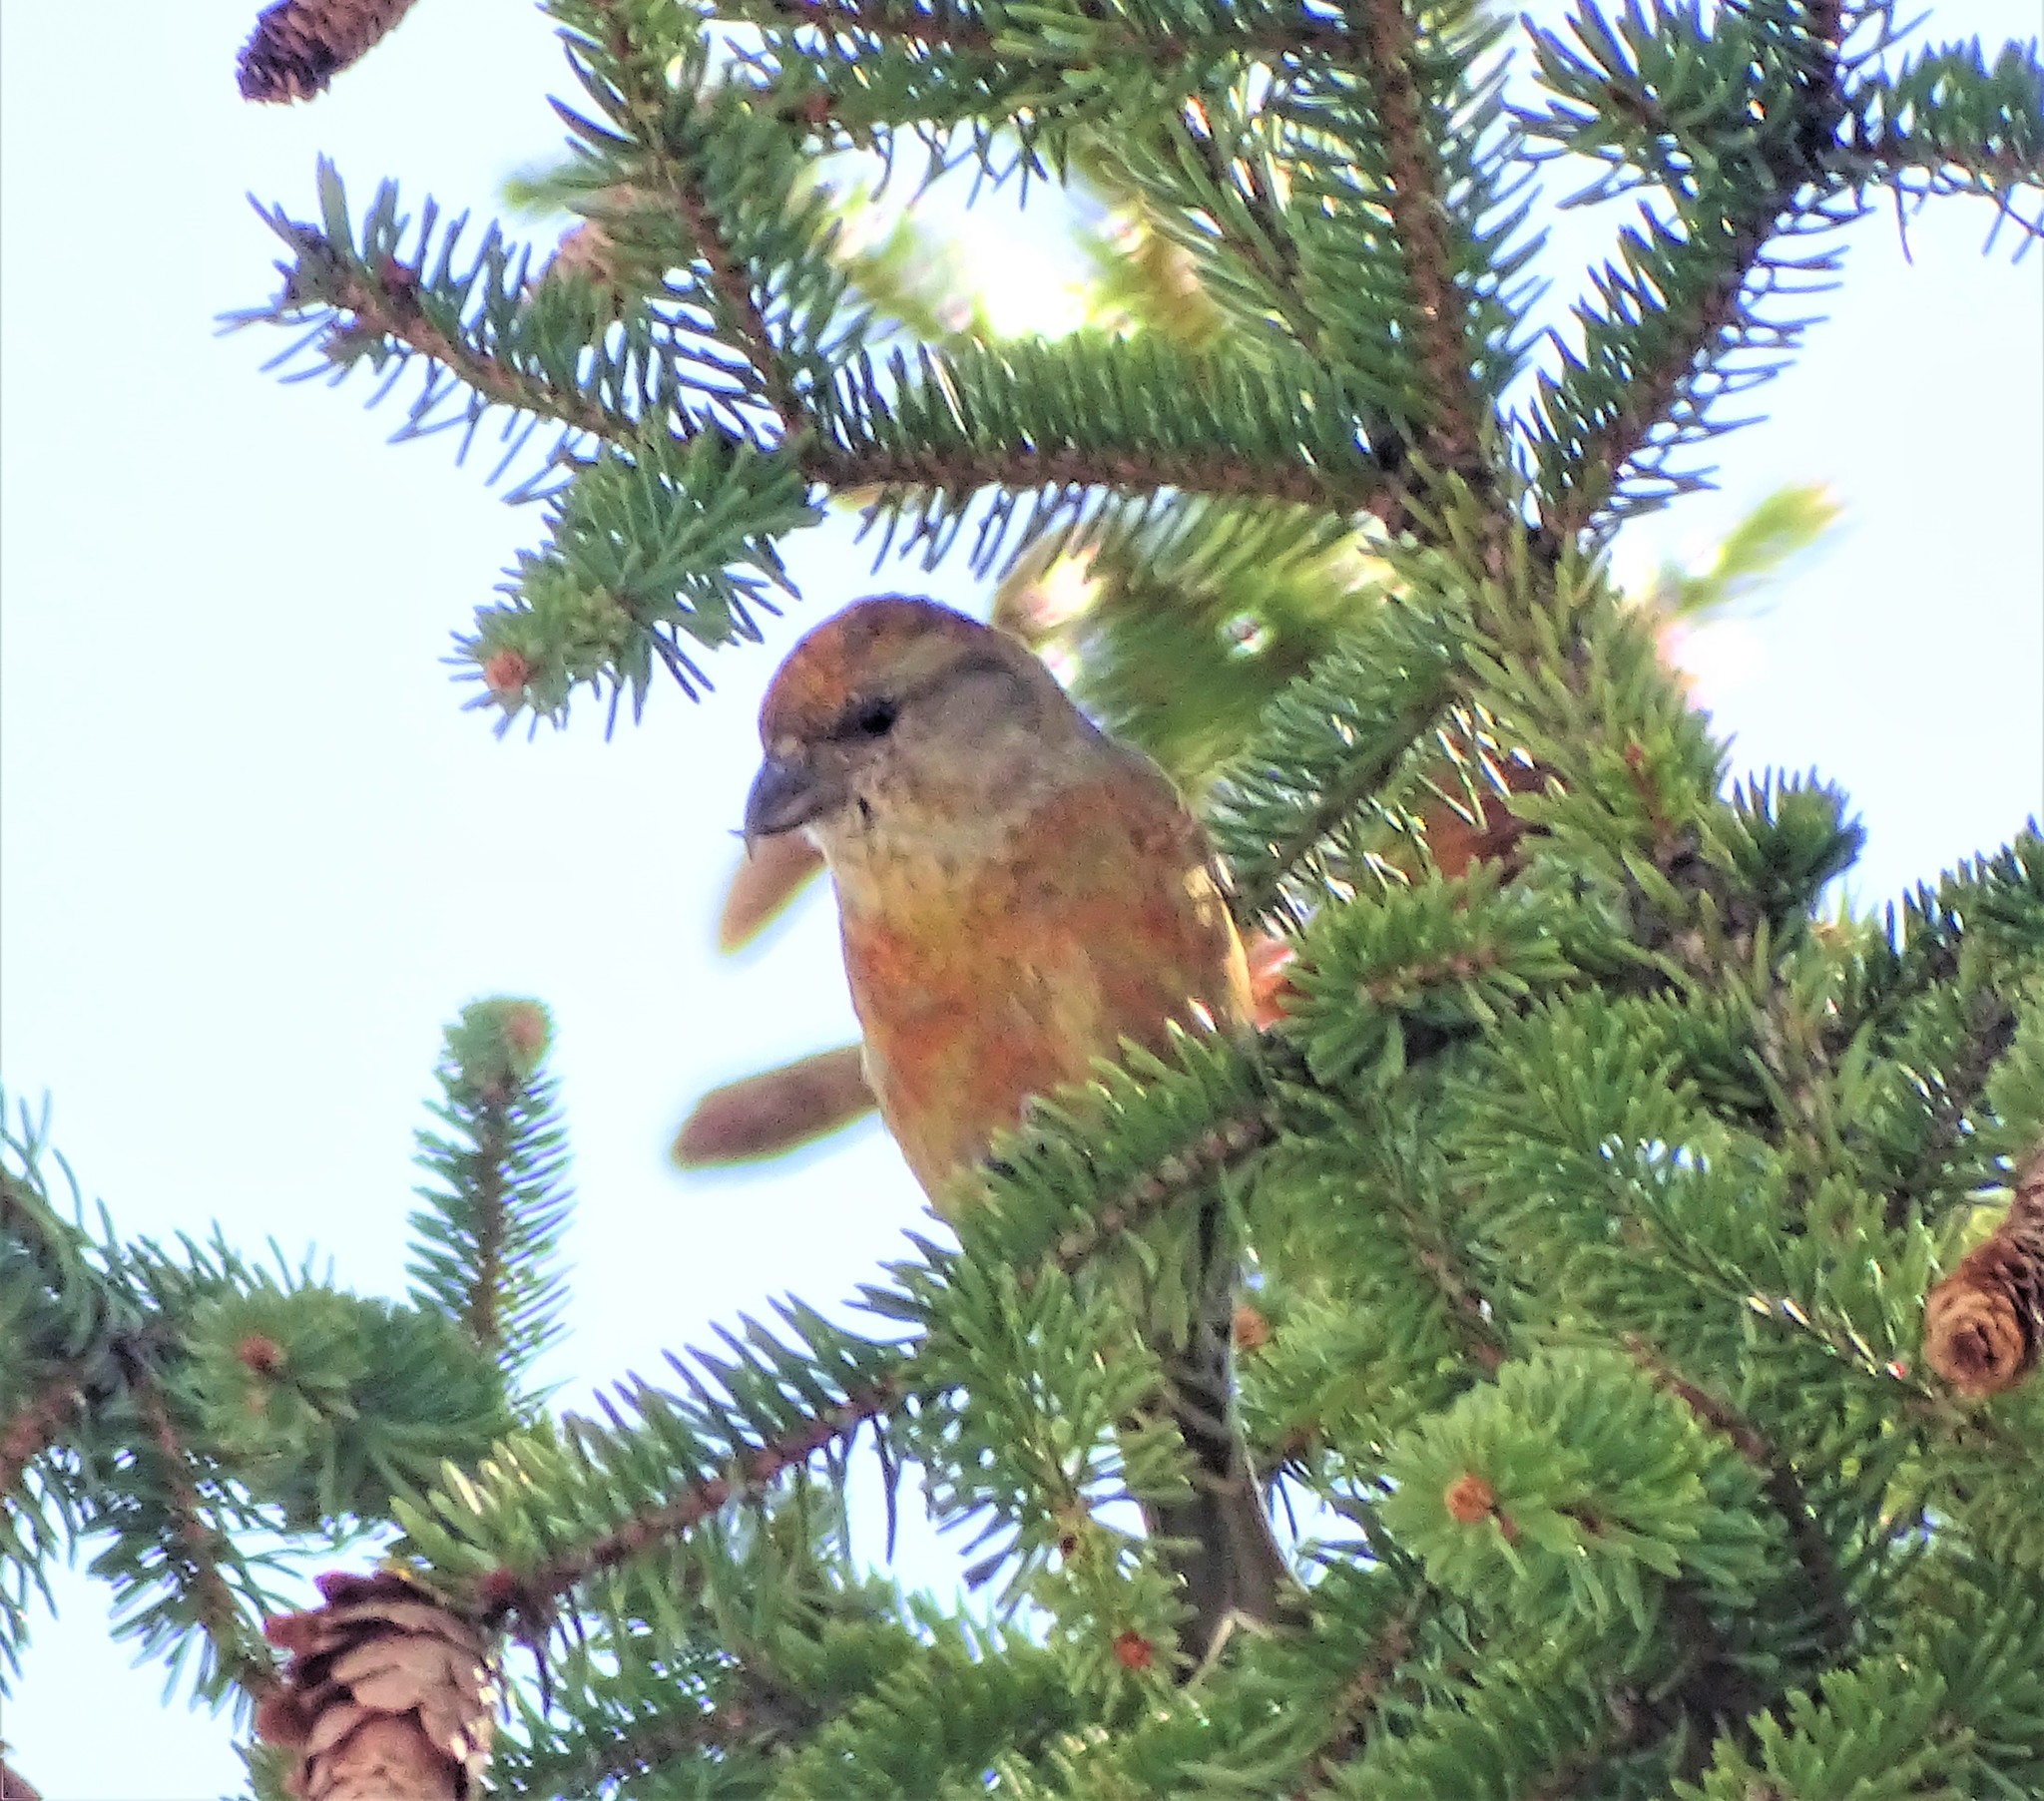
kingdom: Animalia
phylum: Chordata
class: Aves
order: Passeriformes
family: Fringillidae
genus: Loxia
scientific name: Loxia curvirostra
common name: Red crossbill
